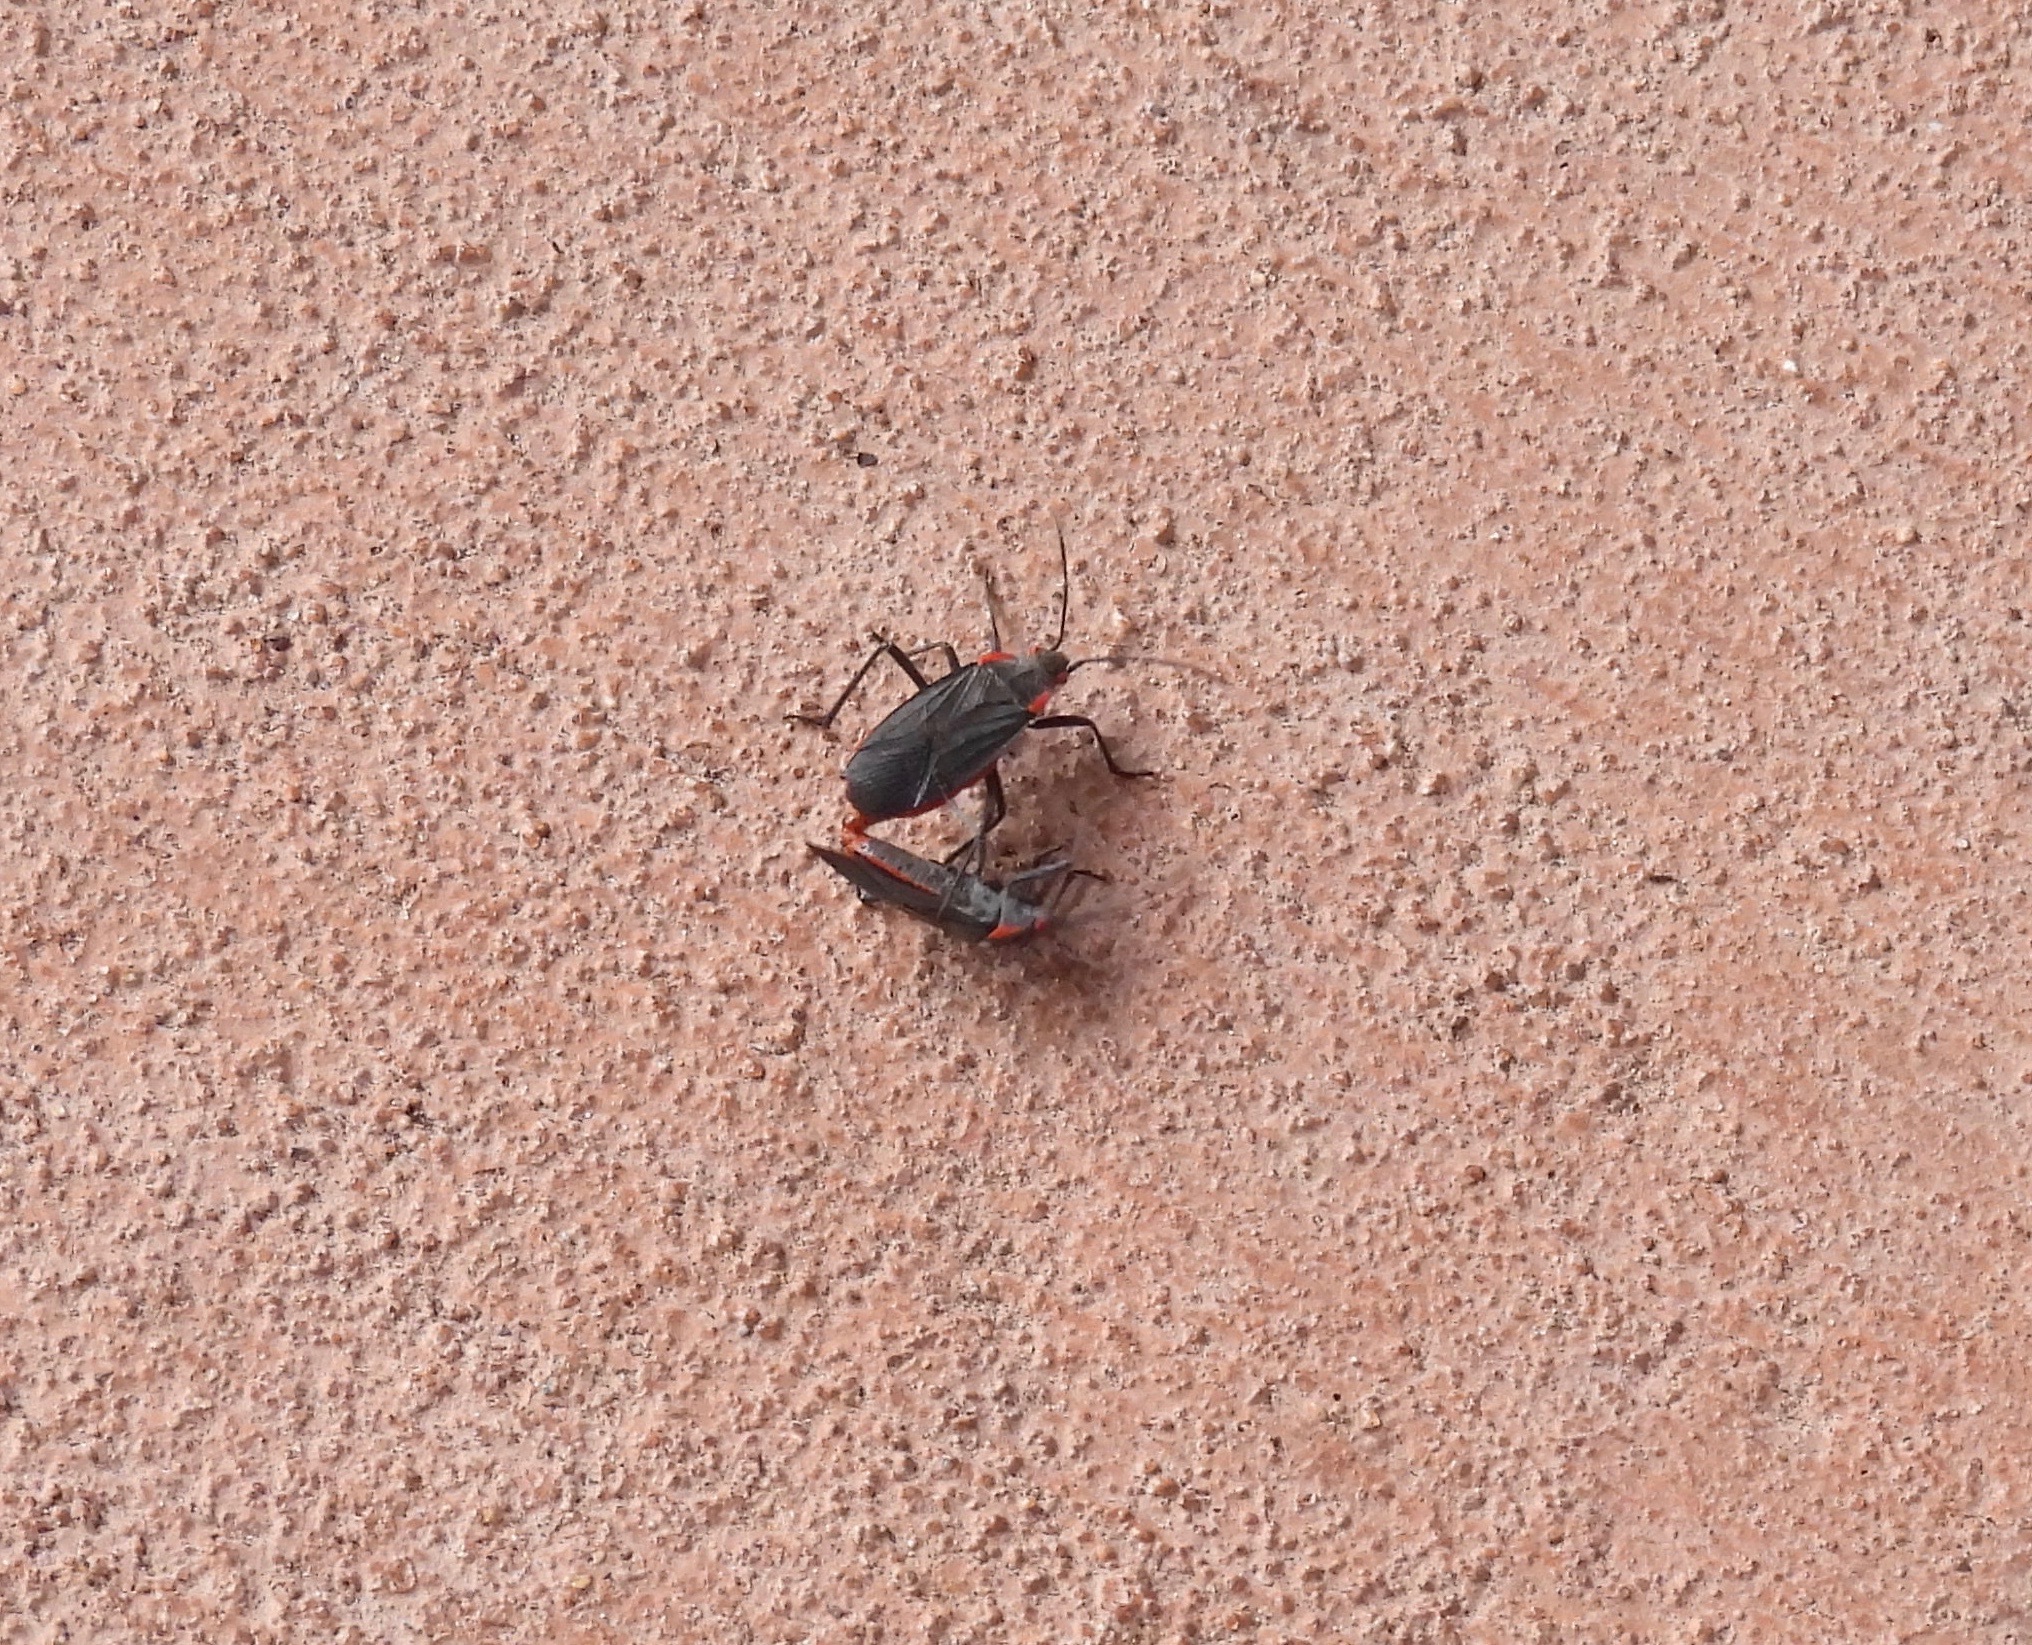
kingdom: Animalia
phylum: Arthropoda
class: Insecta
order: Hemiptera
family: Rhopalidae
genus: Jadera
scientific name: Jadera haematoloma
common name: Red-shouldered bug
